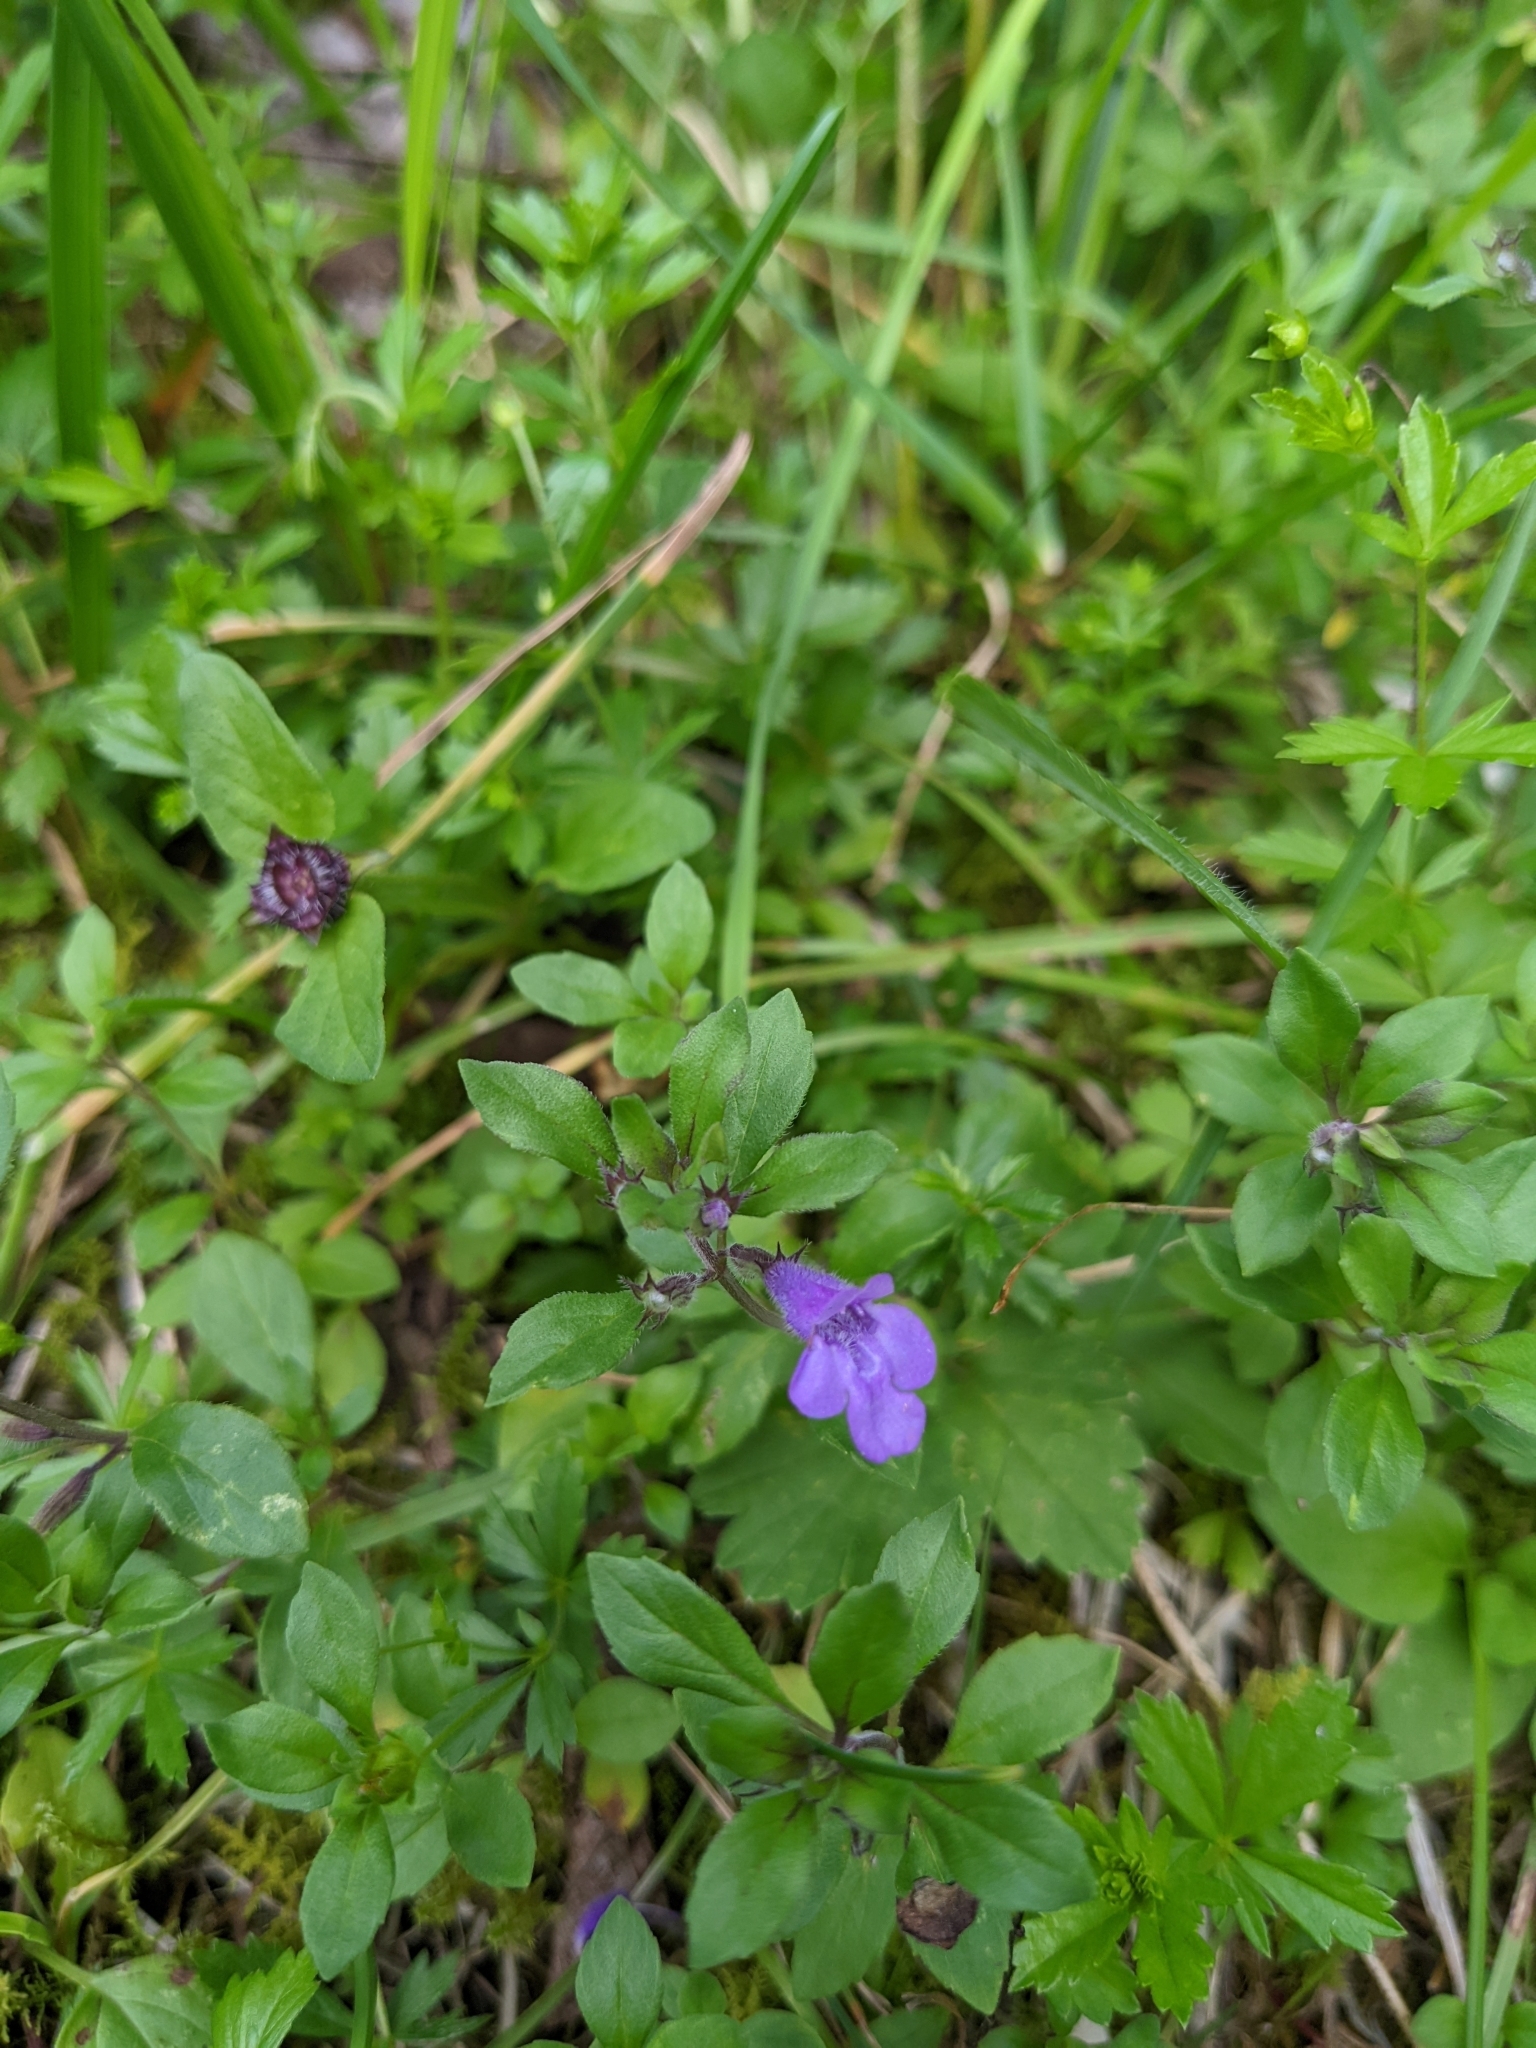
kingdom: Plantae
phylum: Tracheophyta
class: Magnoliopsida
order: Lamiales
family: Lamiaceae
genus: Clinopodium
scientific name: Clinopodium alpinum
